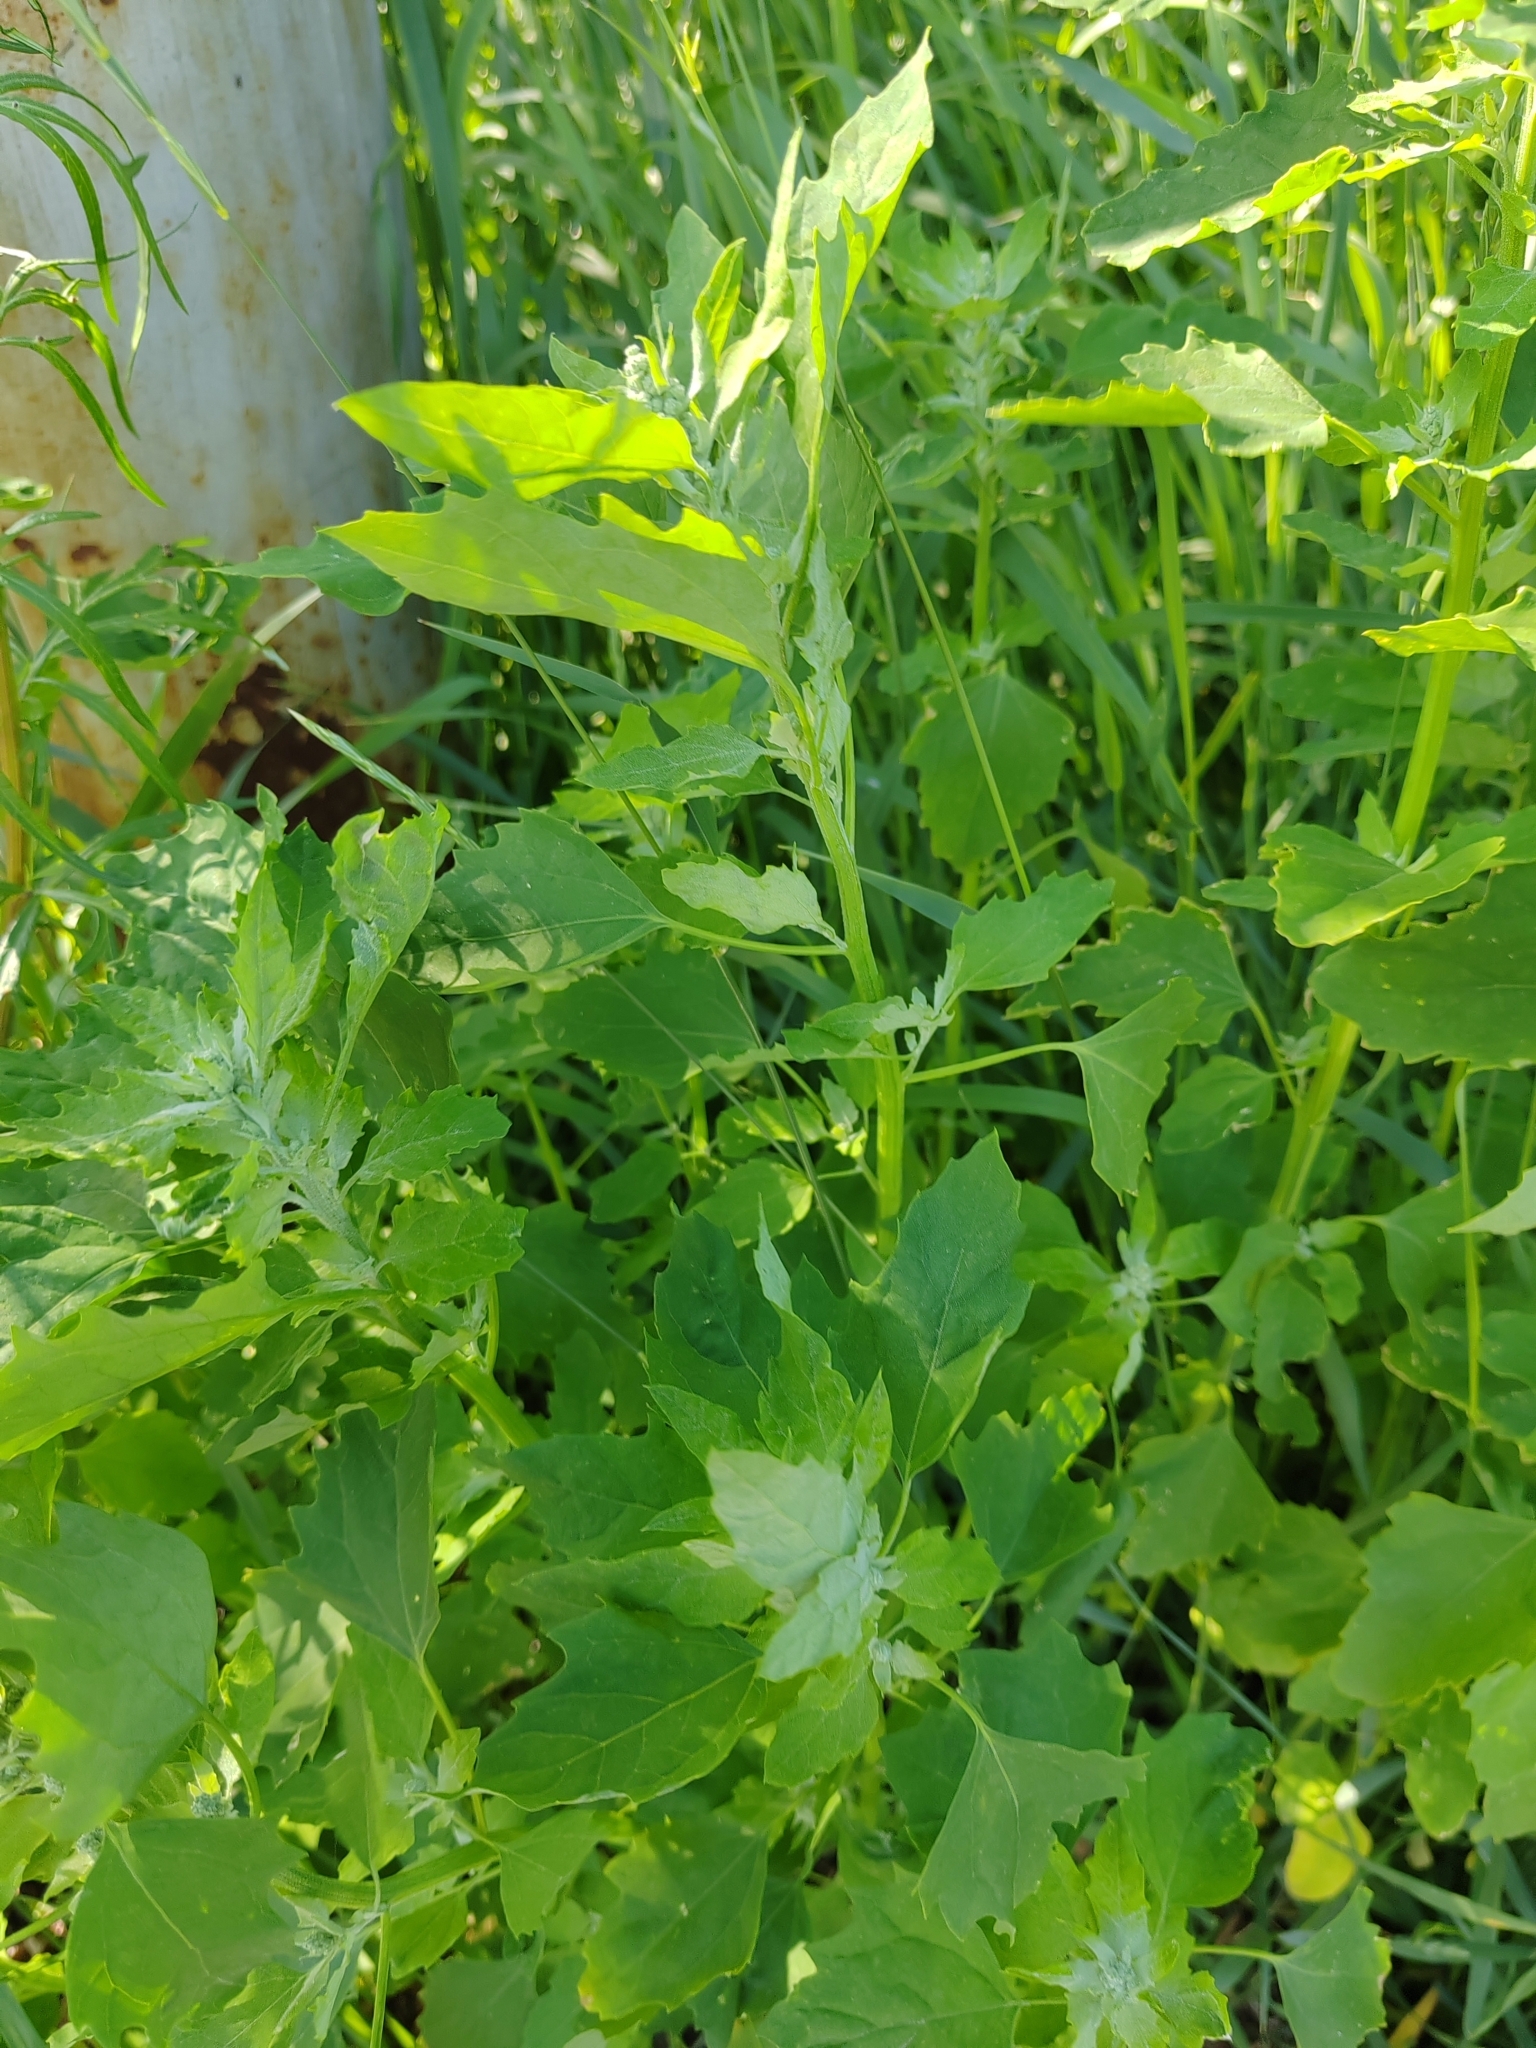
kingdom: Plantae
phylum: Tracheophyta
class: Magnoliopsida
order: Caryophyllales
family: Amaranthaceae
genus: Chenopodium
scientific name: Chenopodium album
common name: Fat-hen
